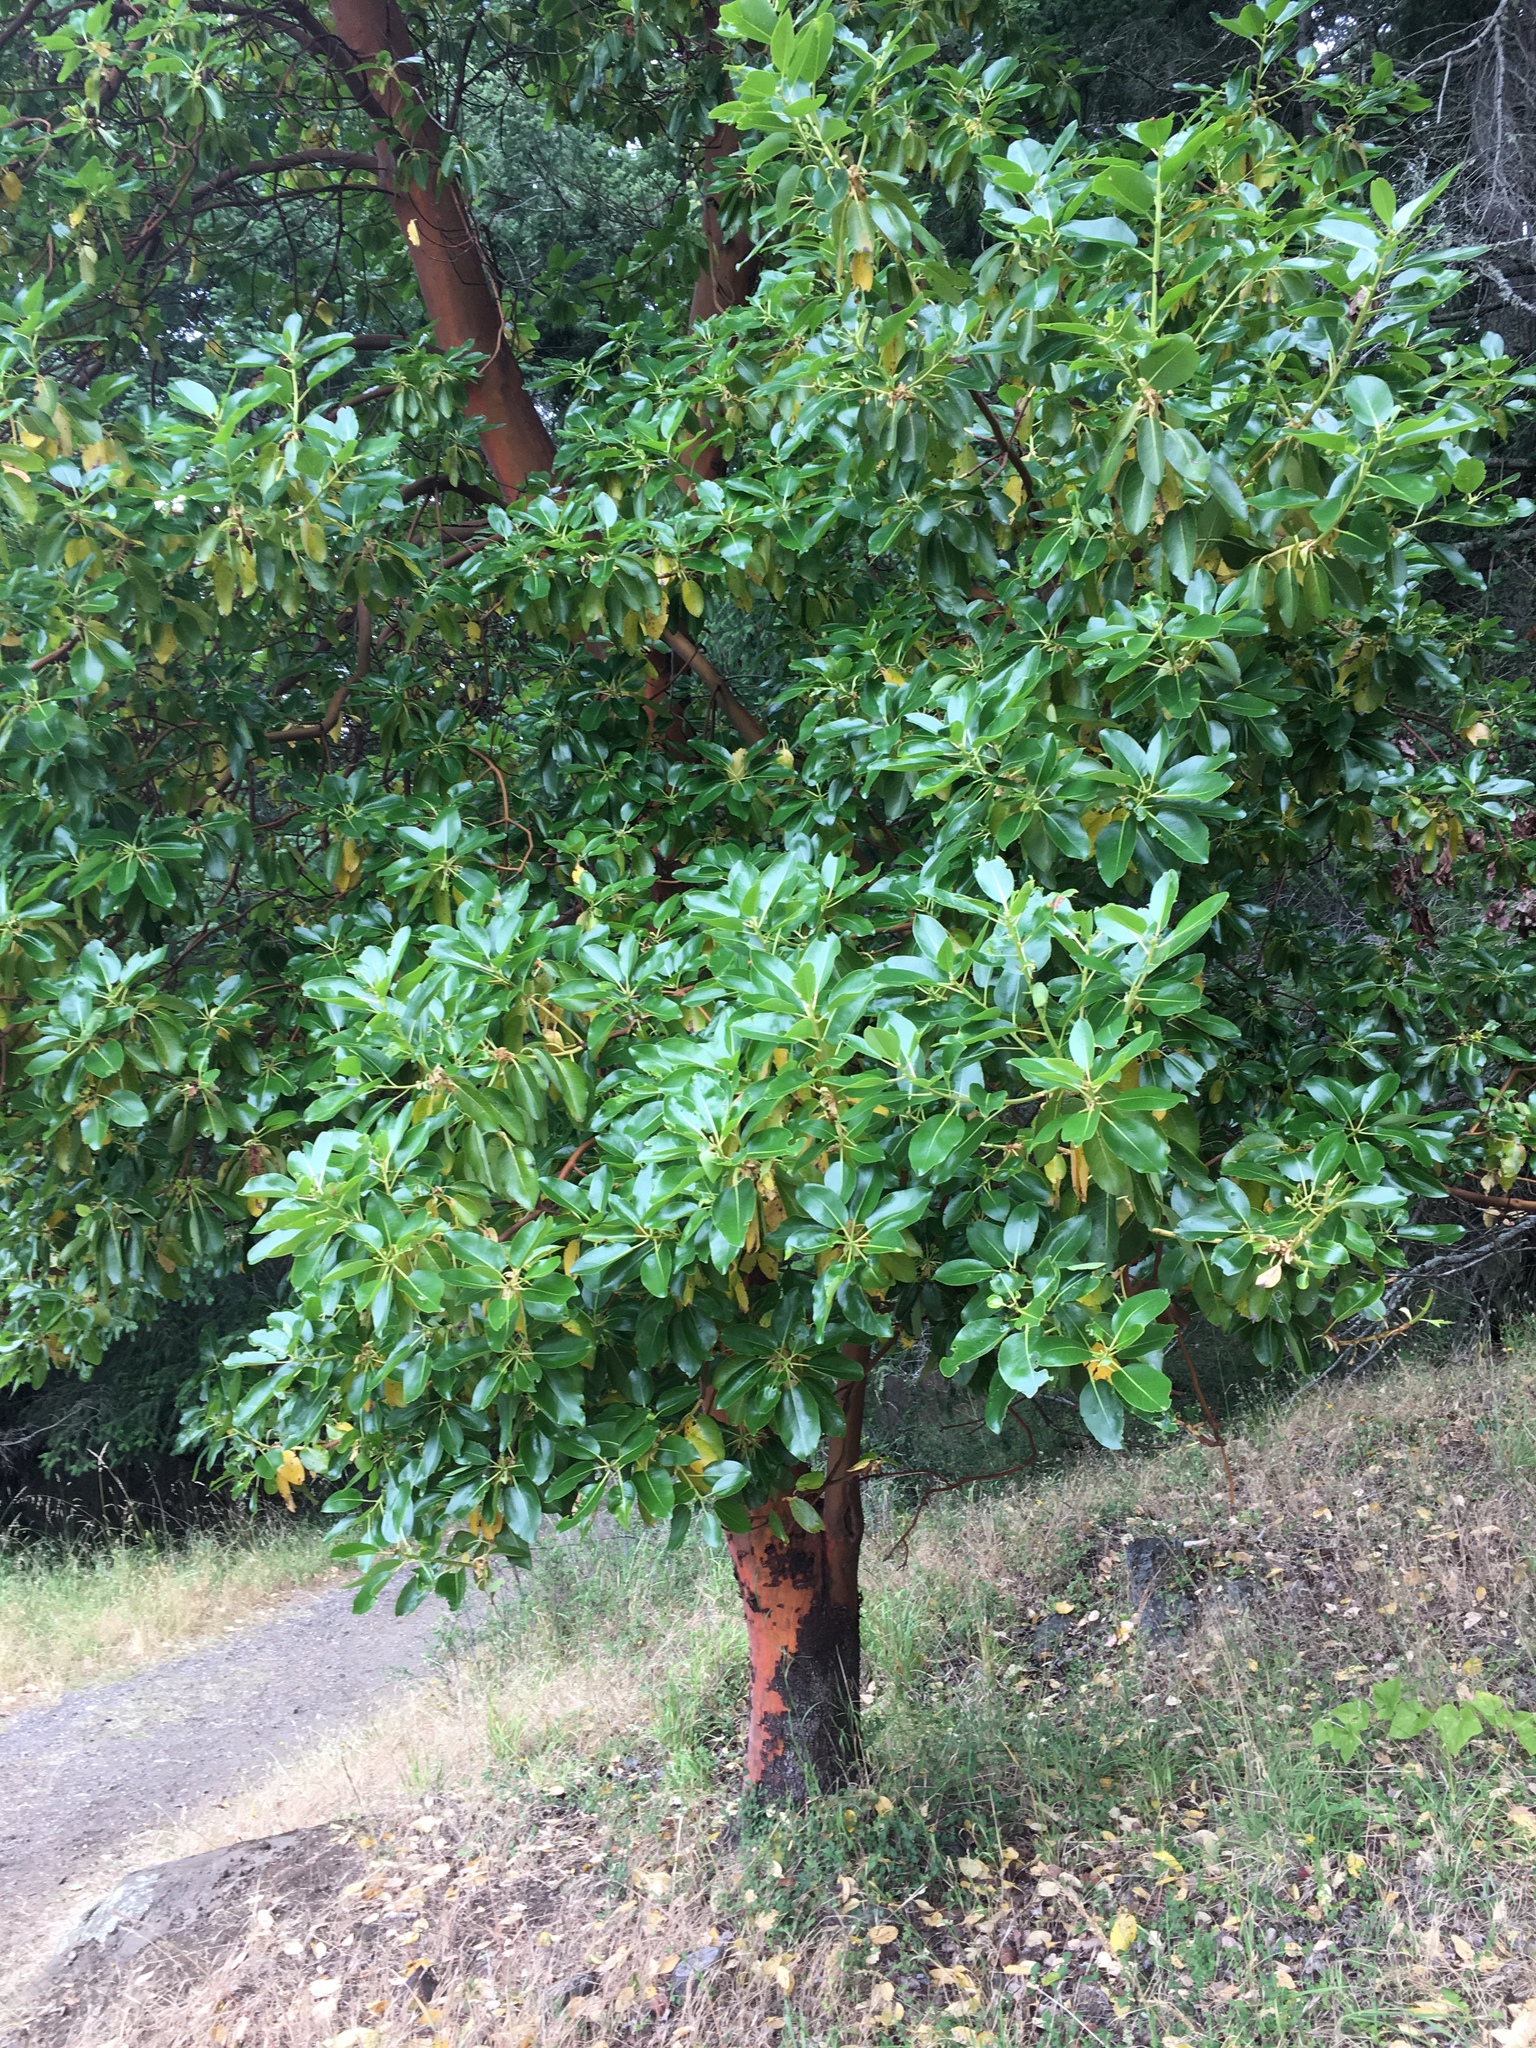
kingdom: Plantae
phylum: Tracheophyta
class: Magnoliopsida
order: Ericales
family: Ericaceae
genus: Arbutus
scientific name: Arbutus menziesii
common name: Pacific madrone
